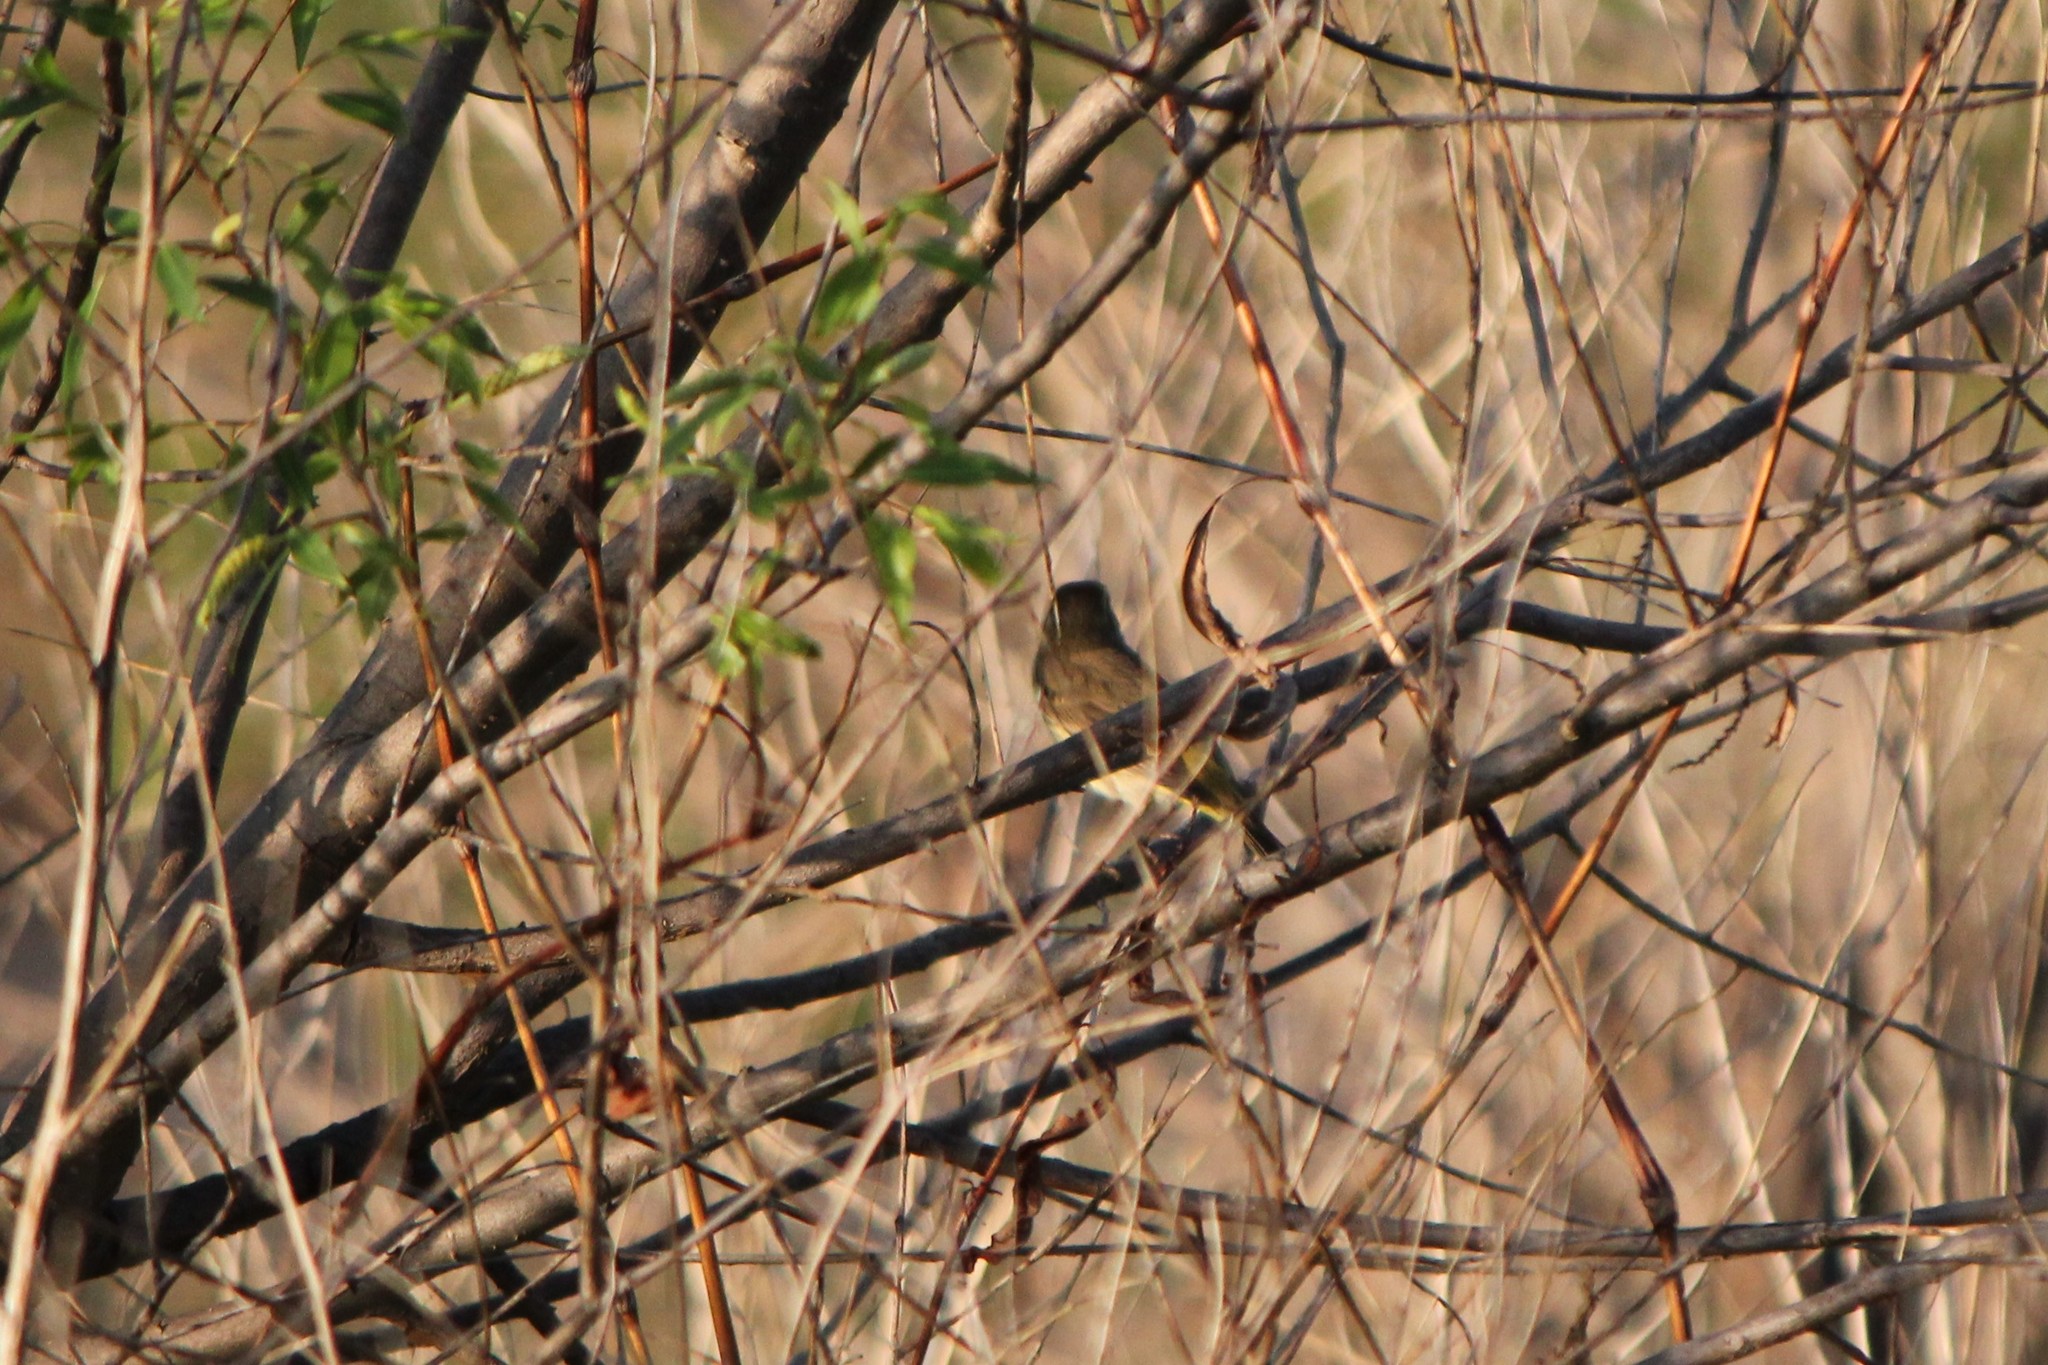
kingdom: Animalia
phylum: Chordata
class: Aves
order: Passeriformes
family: Parulidae
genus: Setophaga
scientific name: Setophaga palmarum
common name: Palm warbler
